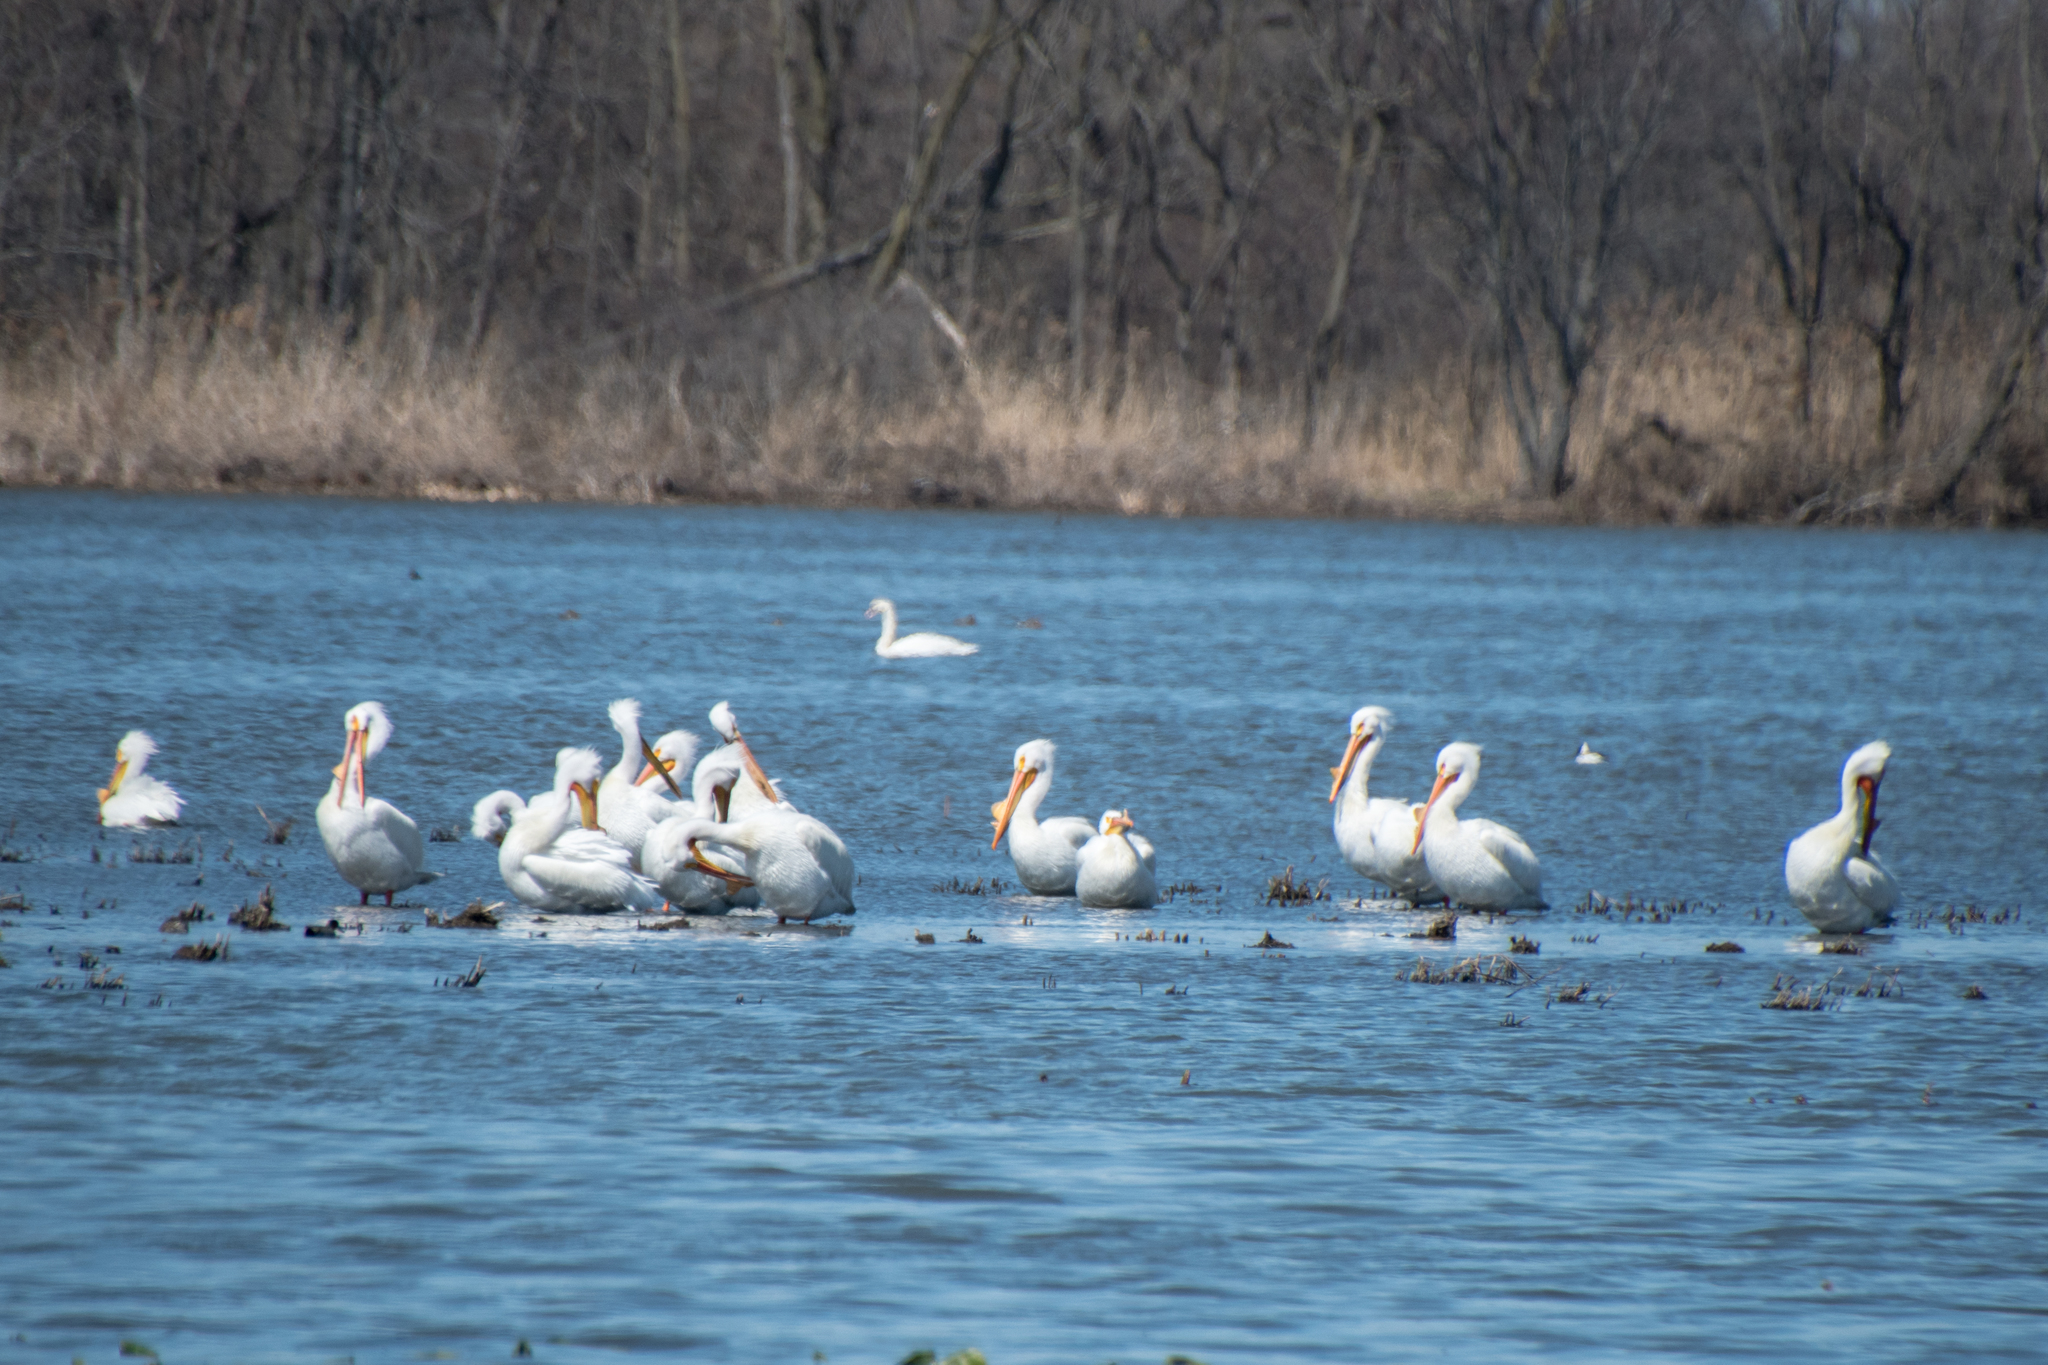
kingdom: Animalia
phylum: Chordata
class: Aves
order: Pelecaniformes
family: Pelecanidae
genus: Pelecanus
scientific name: Pelecanus erythrorhynchos
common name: American white pelican
